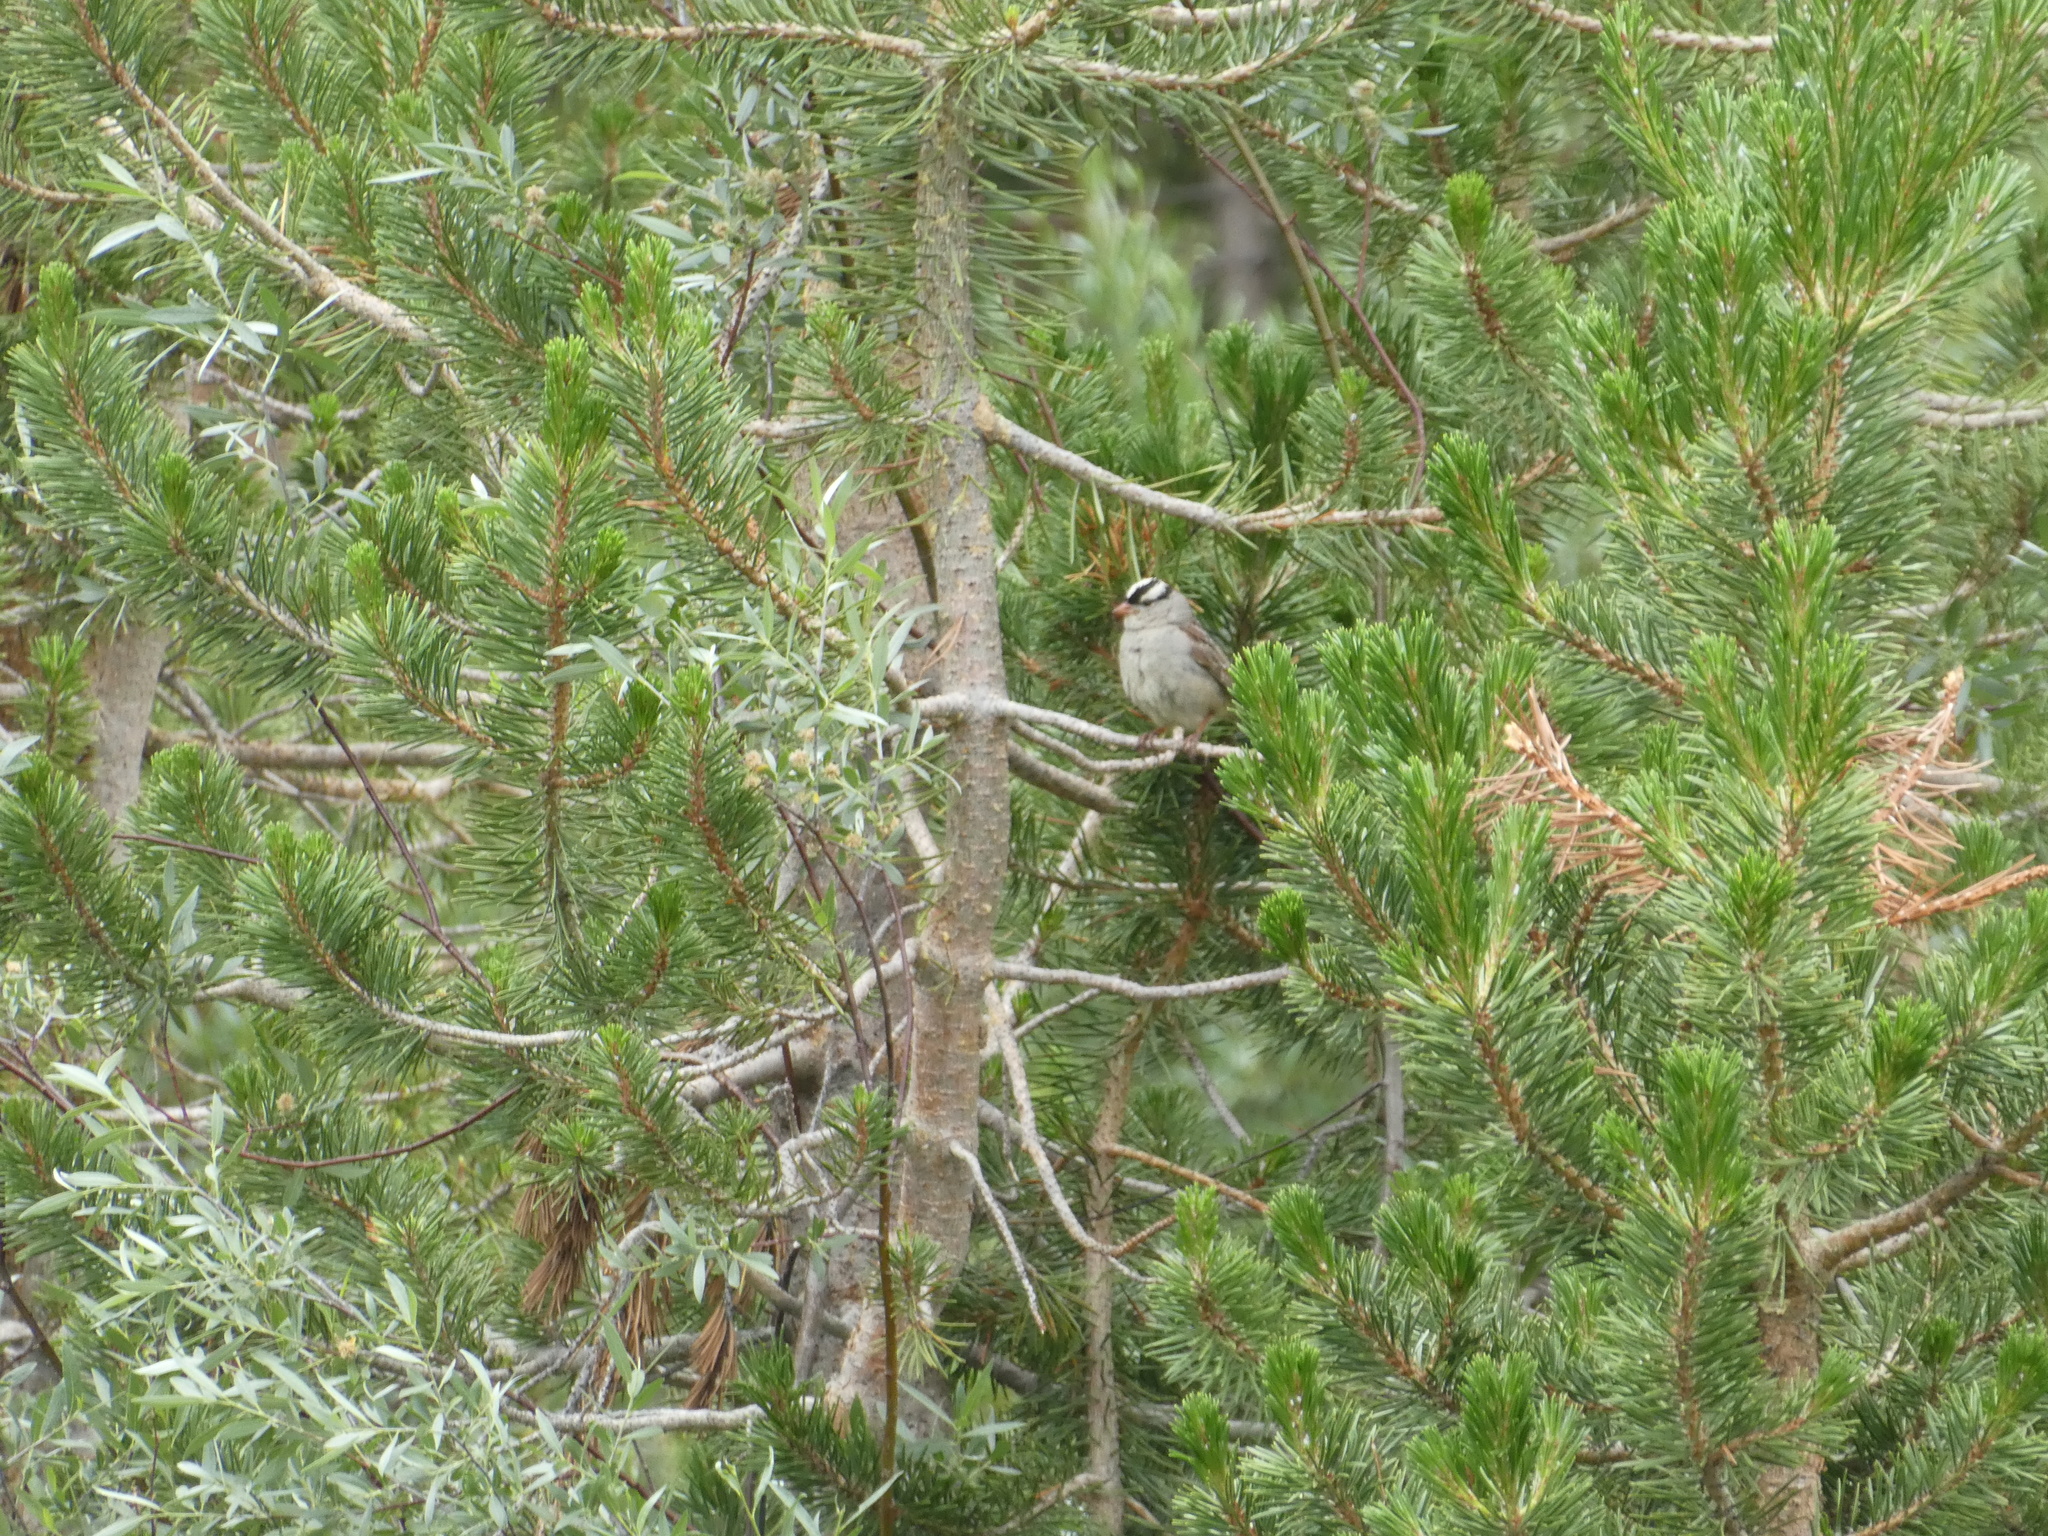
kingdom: Animalia
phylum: Chordata
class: Aves
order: Passeriformes
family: Passerellidae
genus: Zonotrichia
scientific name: Zonotrichia leucophrys
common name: White-crowned sparrow
